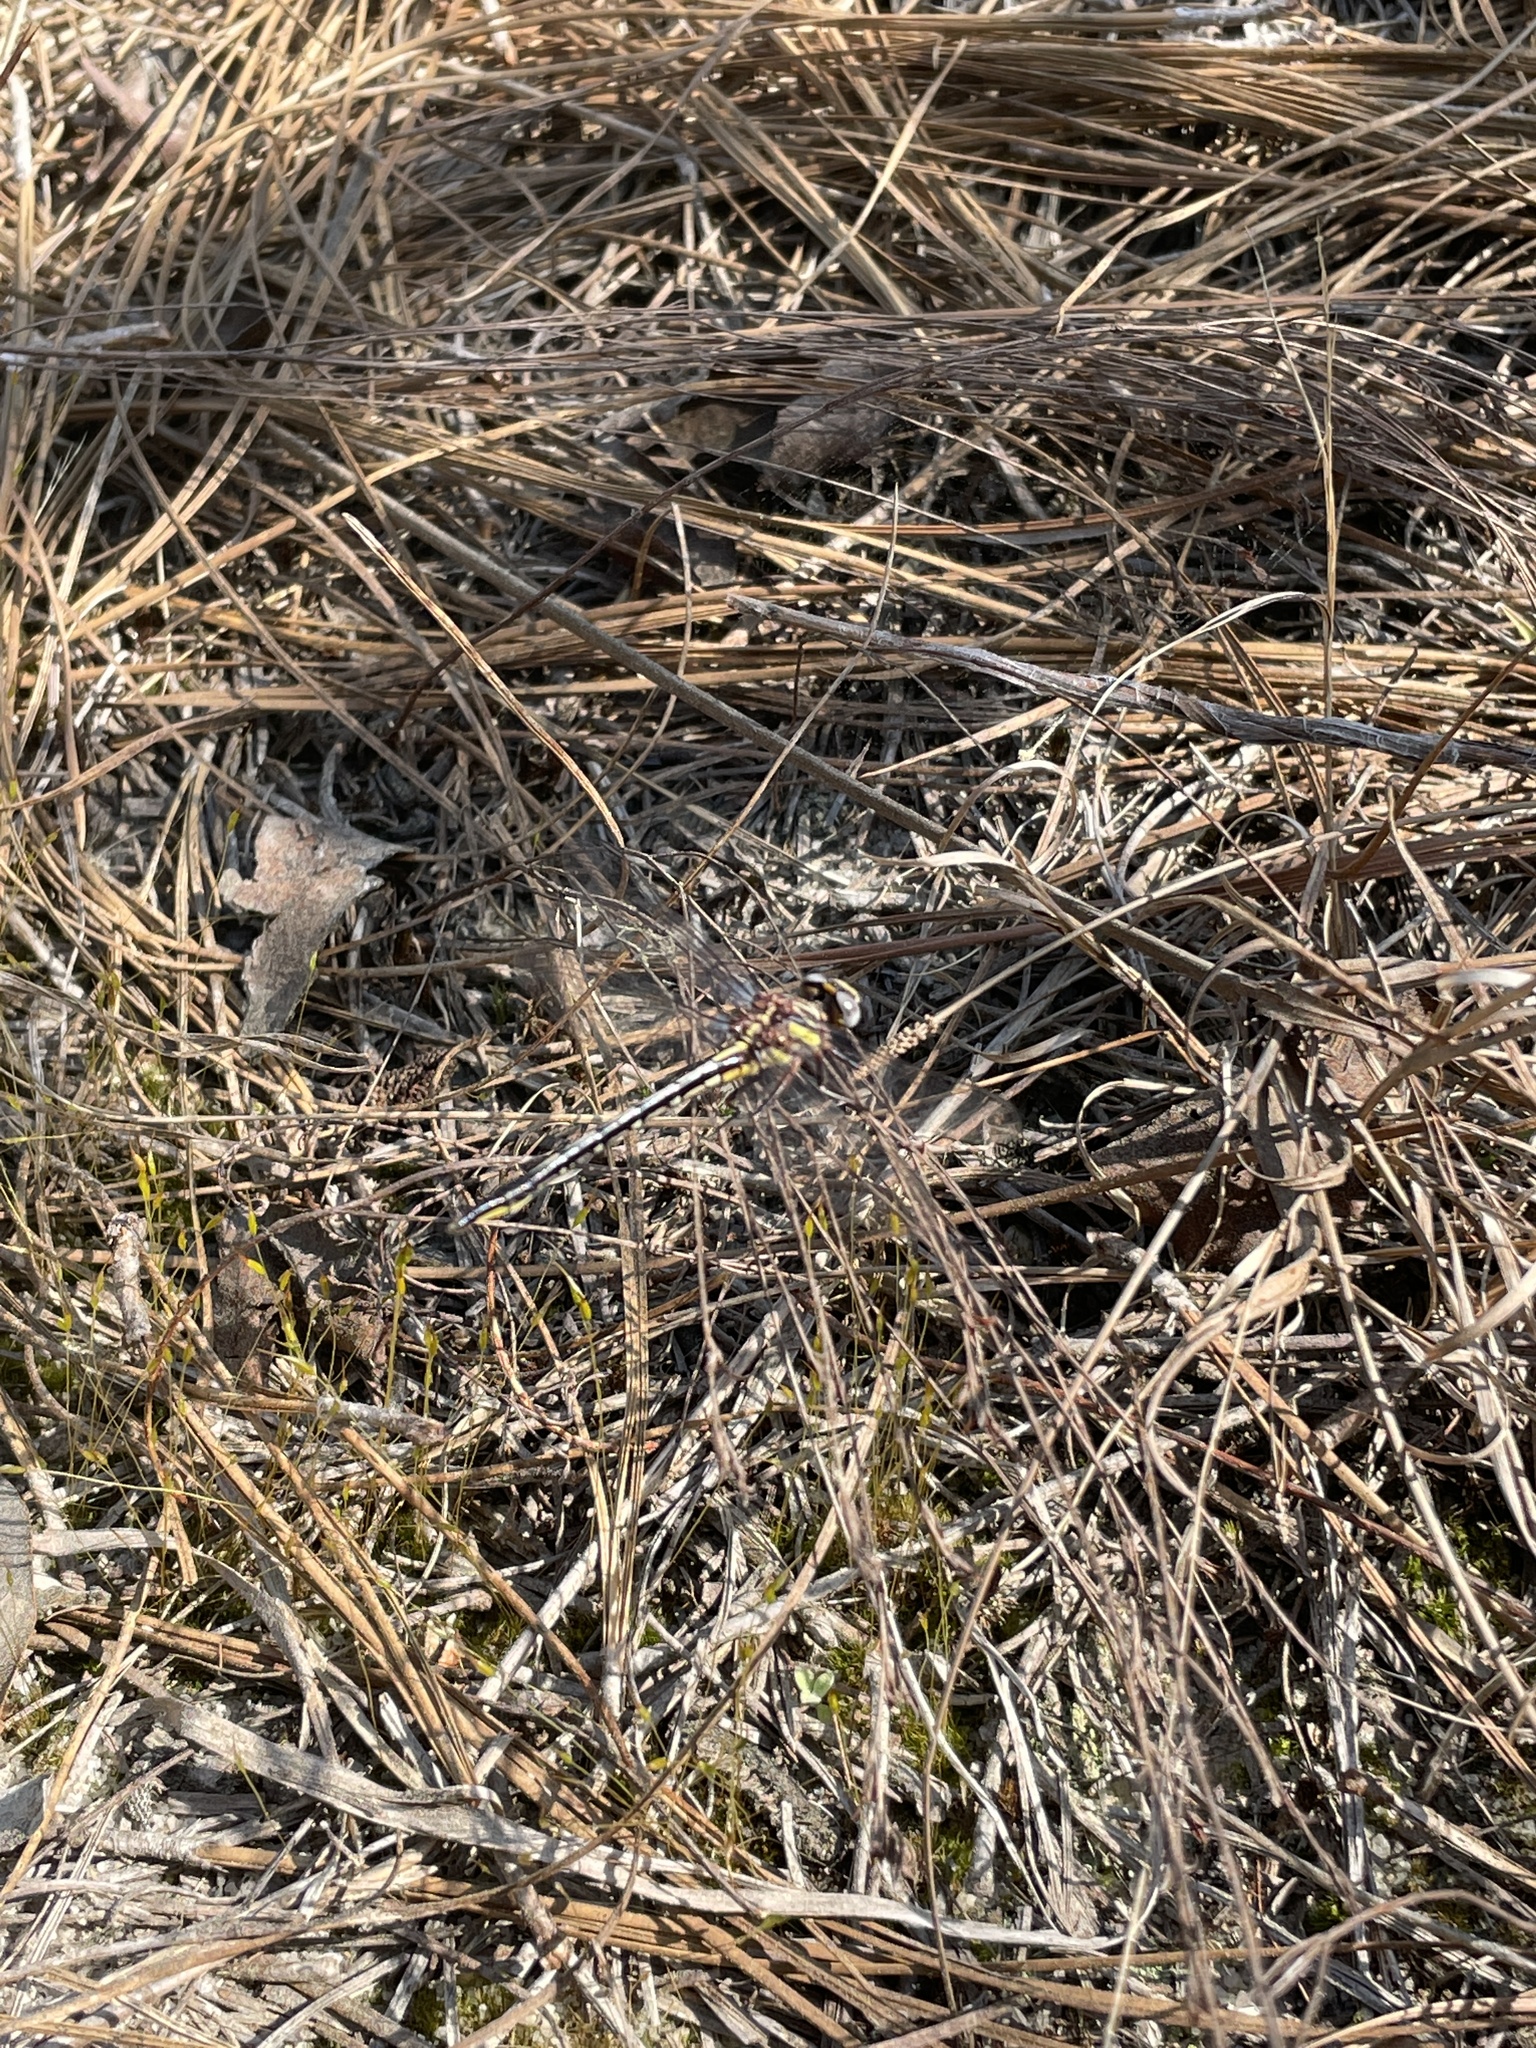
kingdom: Animalia
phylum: Arthropoda
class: Insecta
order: Odonata
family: Gomphidae
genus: Phanogomphus
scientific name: Phanogomphus diminutus
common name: Diminutive clubtail
